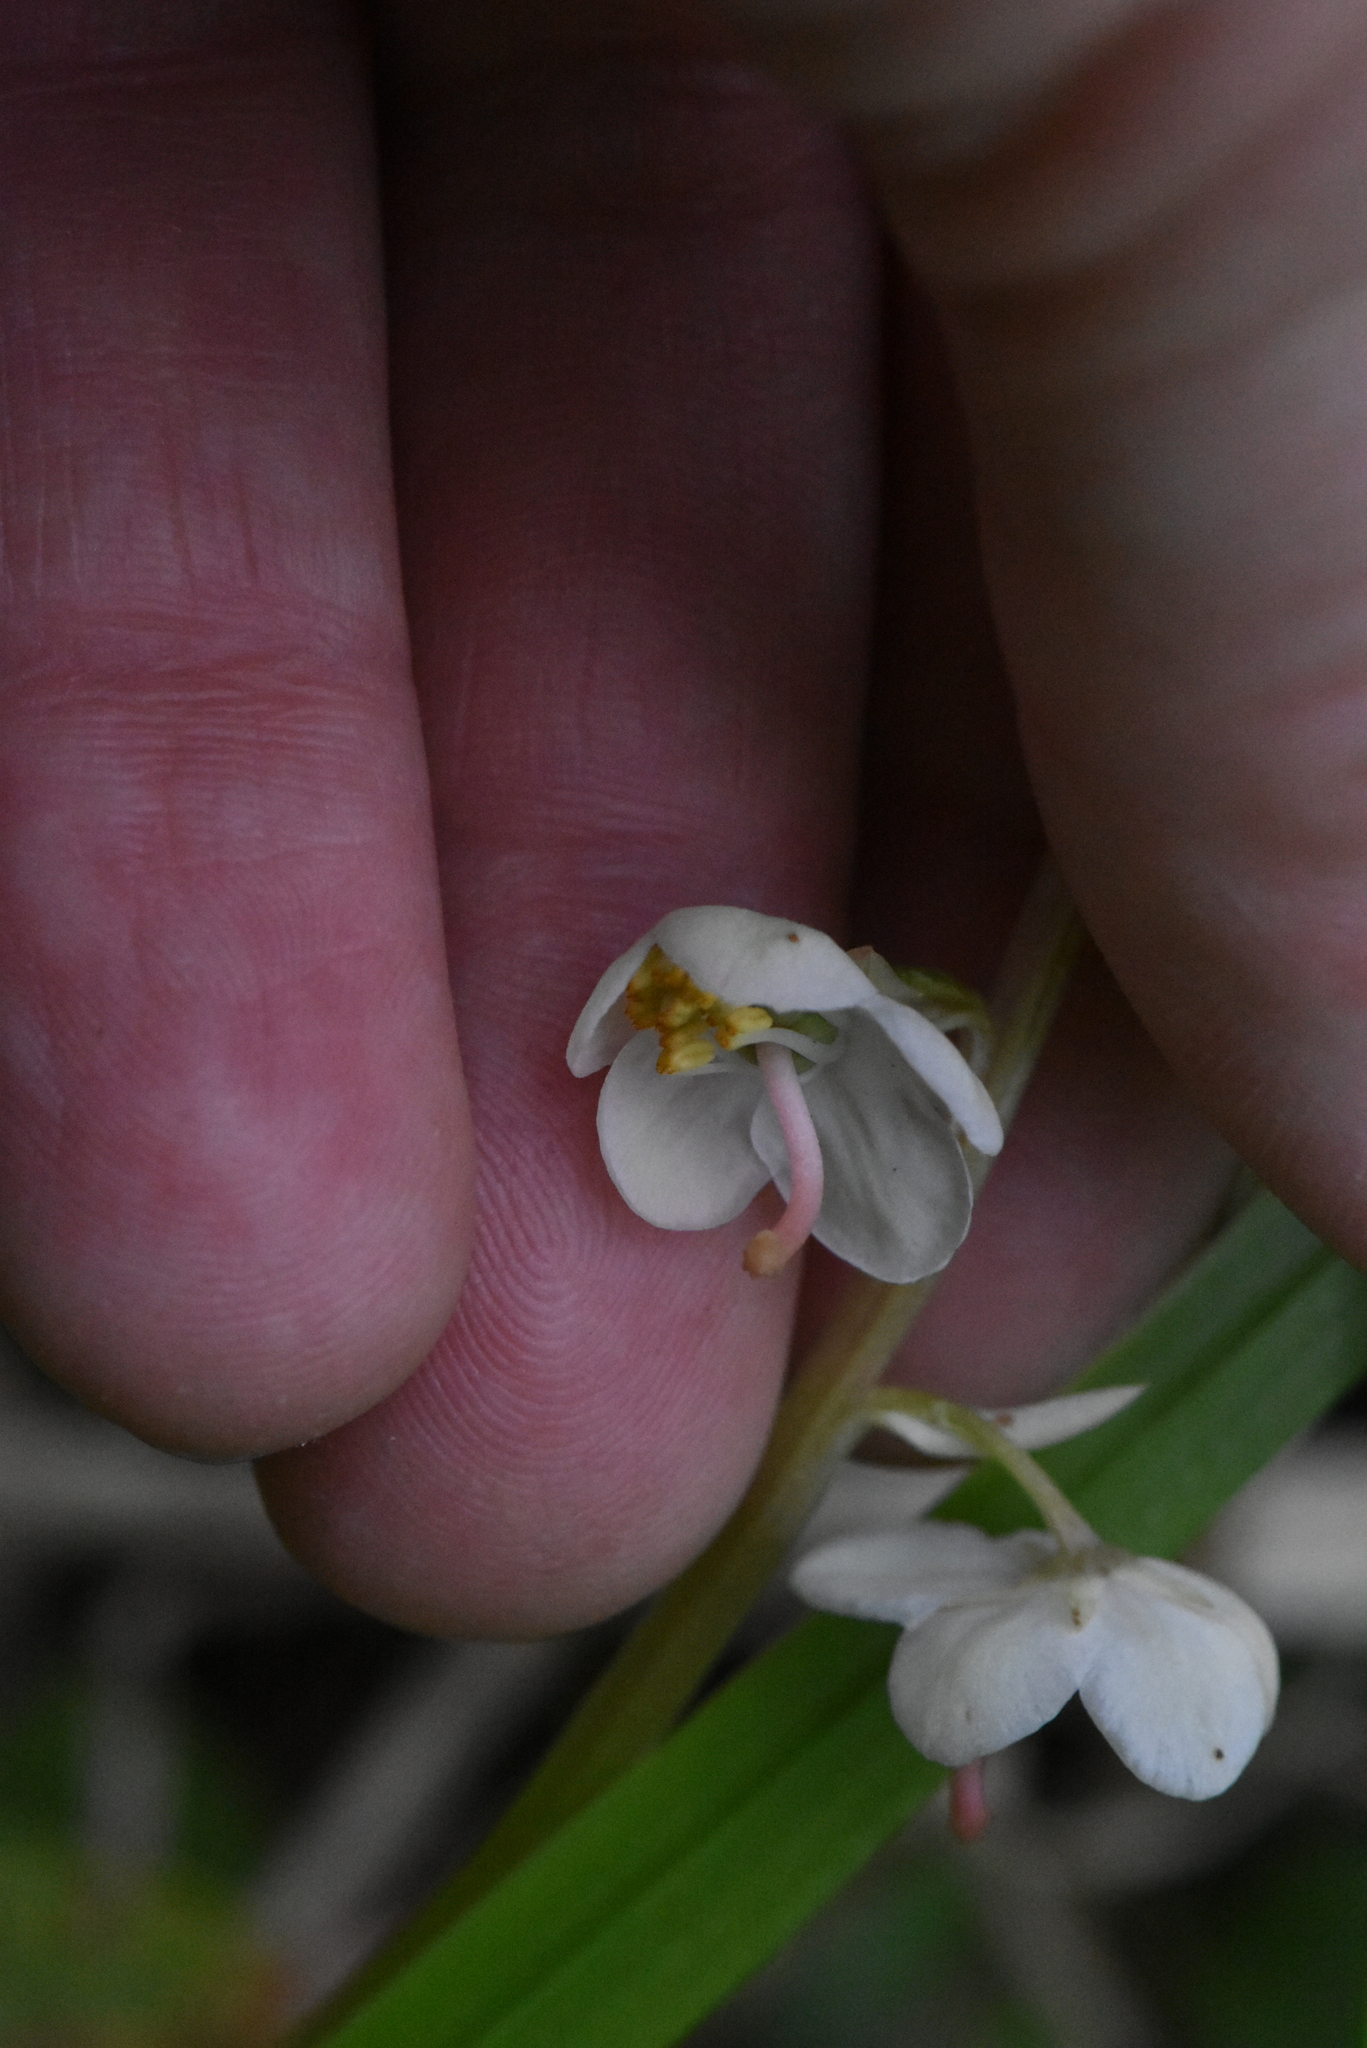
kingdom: Plantae
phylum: Tracheophyta
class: Magnoliopsida
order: Ericales
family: Ericaceae
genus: Pyrola
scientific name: Pyrola rotundifolia
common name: Round-leaved wintergreen
